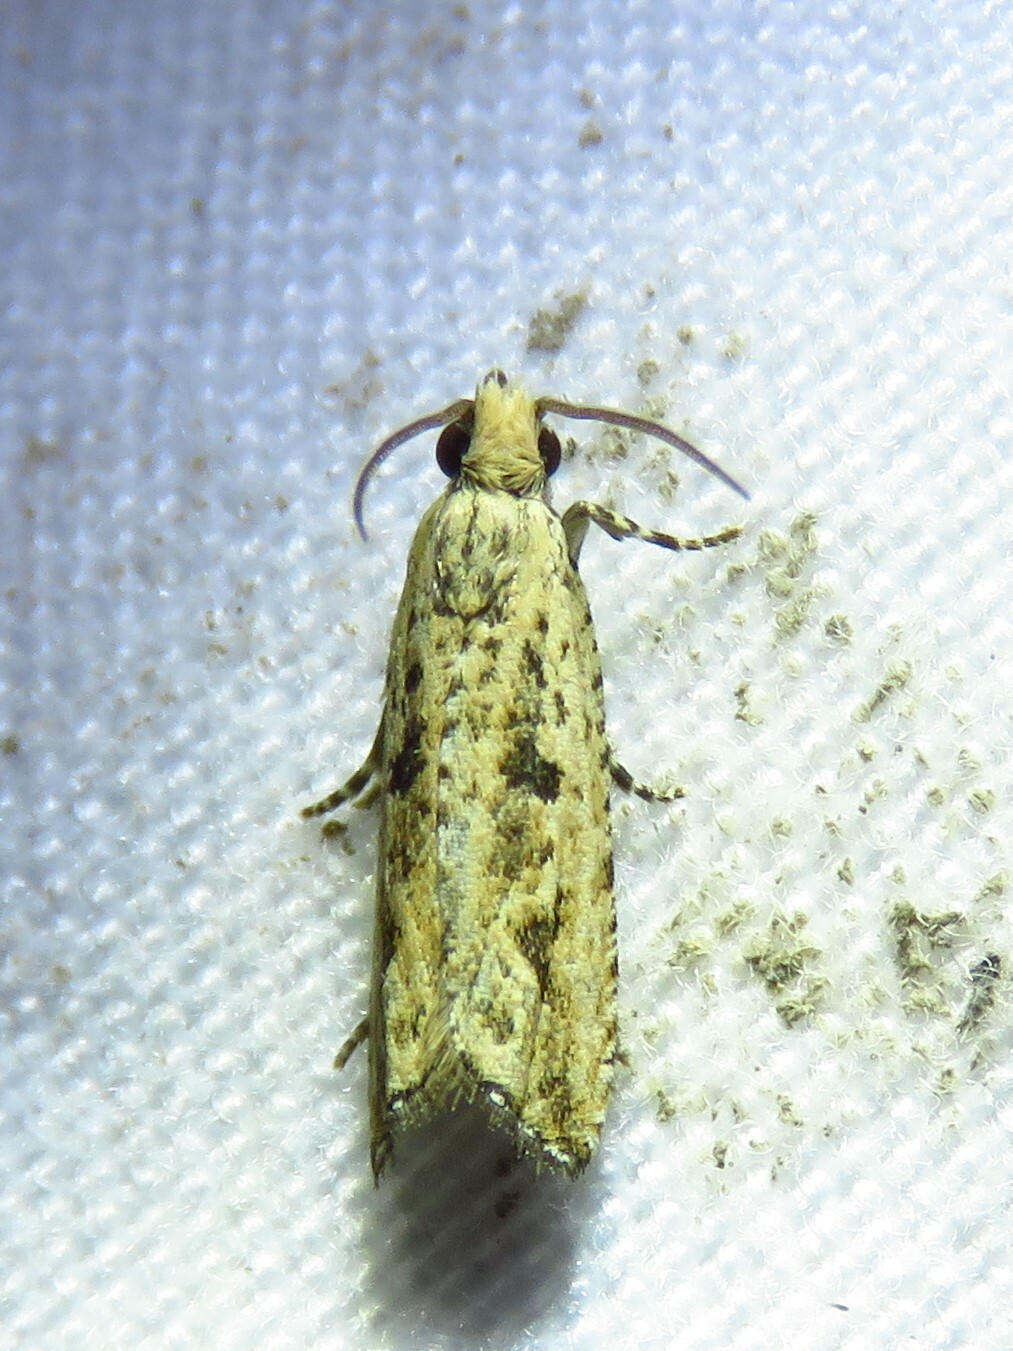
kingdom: Animalia
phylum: Arthropoda
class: Insecta
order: Lepidoptera
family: Tortricidae
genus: Bactra
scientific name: Bactra verutana
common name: Javelin moth
